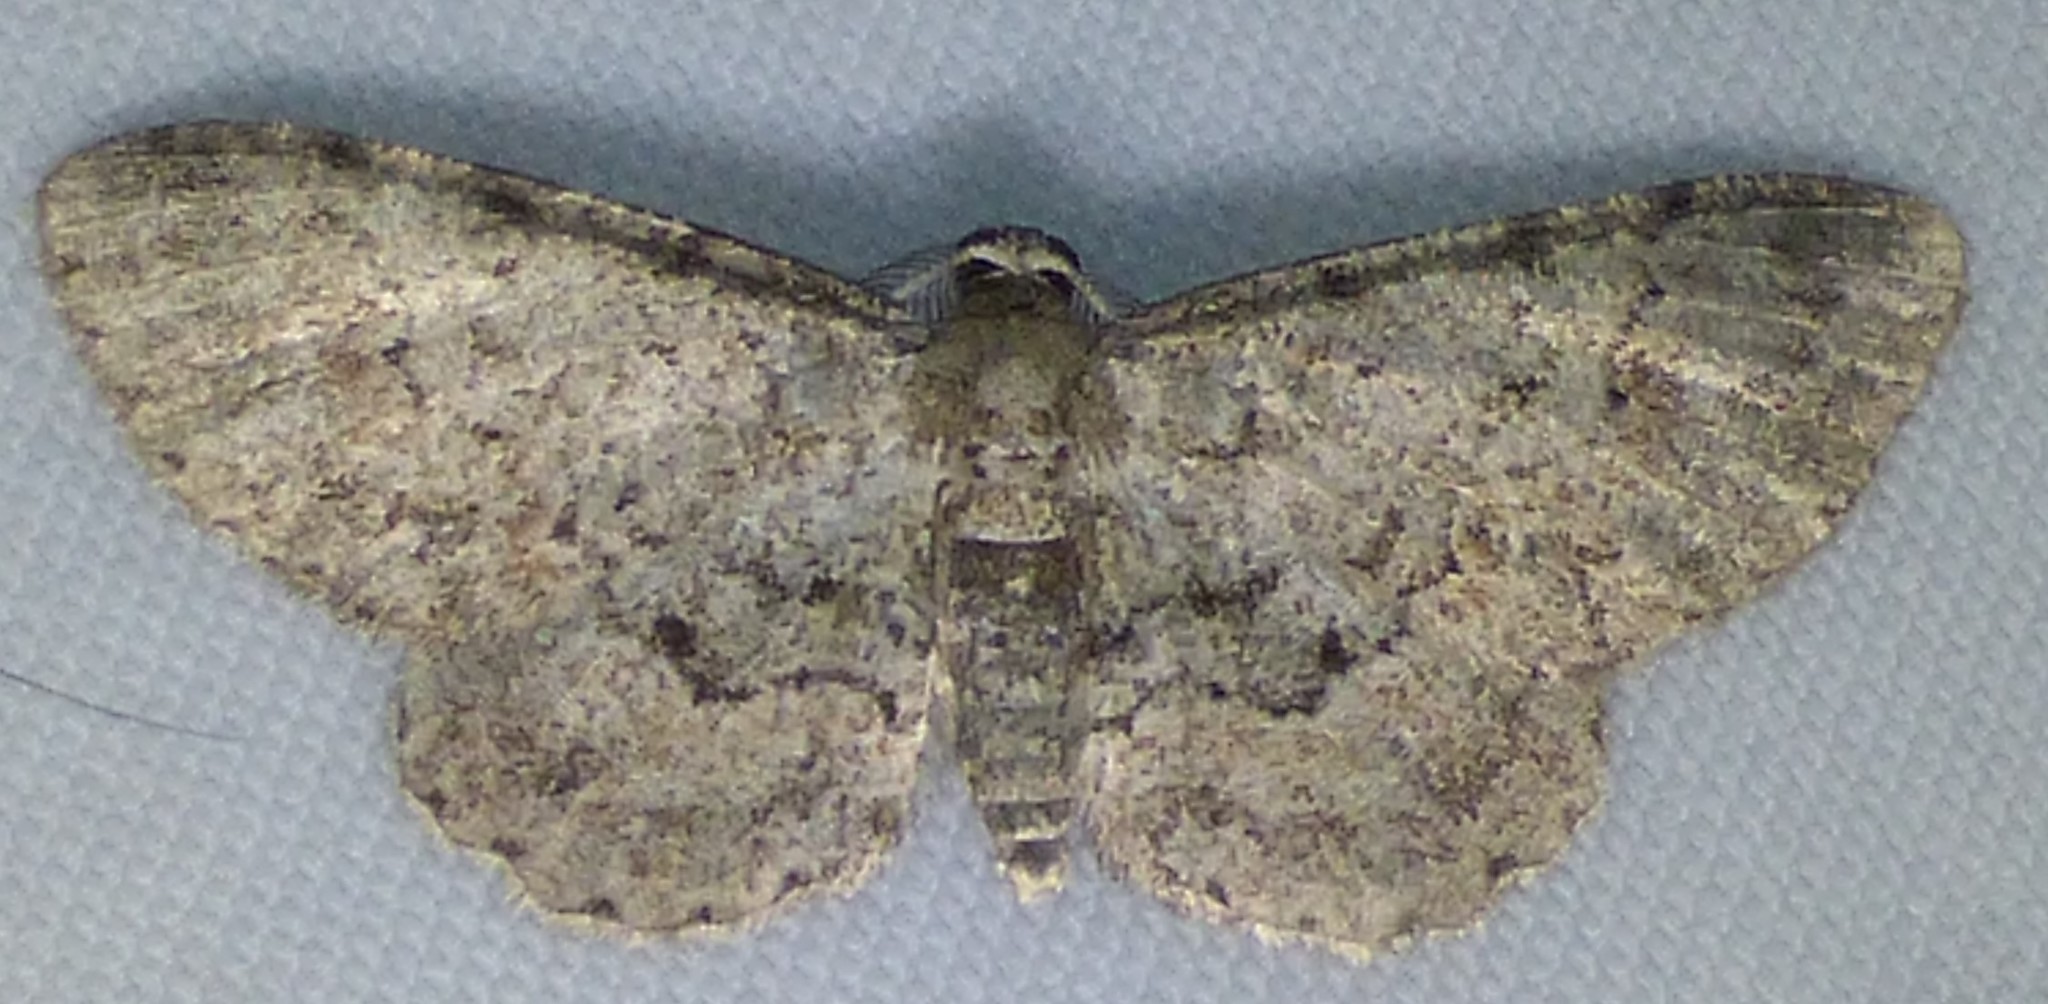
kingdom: Animalia
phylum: Arthropoda
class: Insecta
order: Lepidoptera
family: Geometridae
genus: Glenoides
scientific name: Glenoides texanaria
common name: Texas gray
